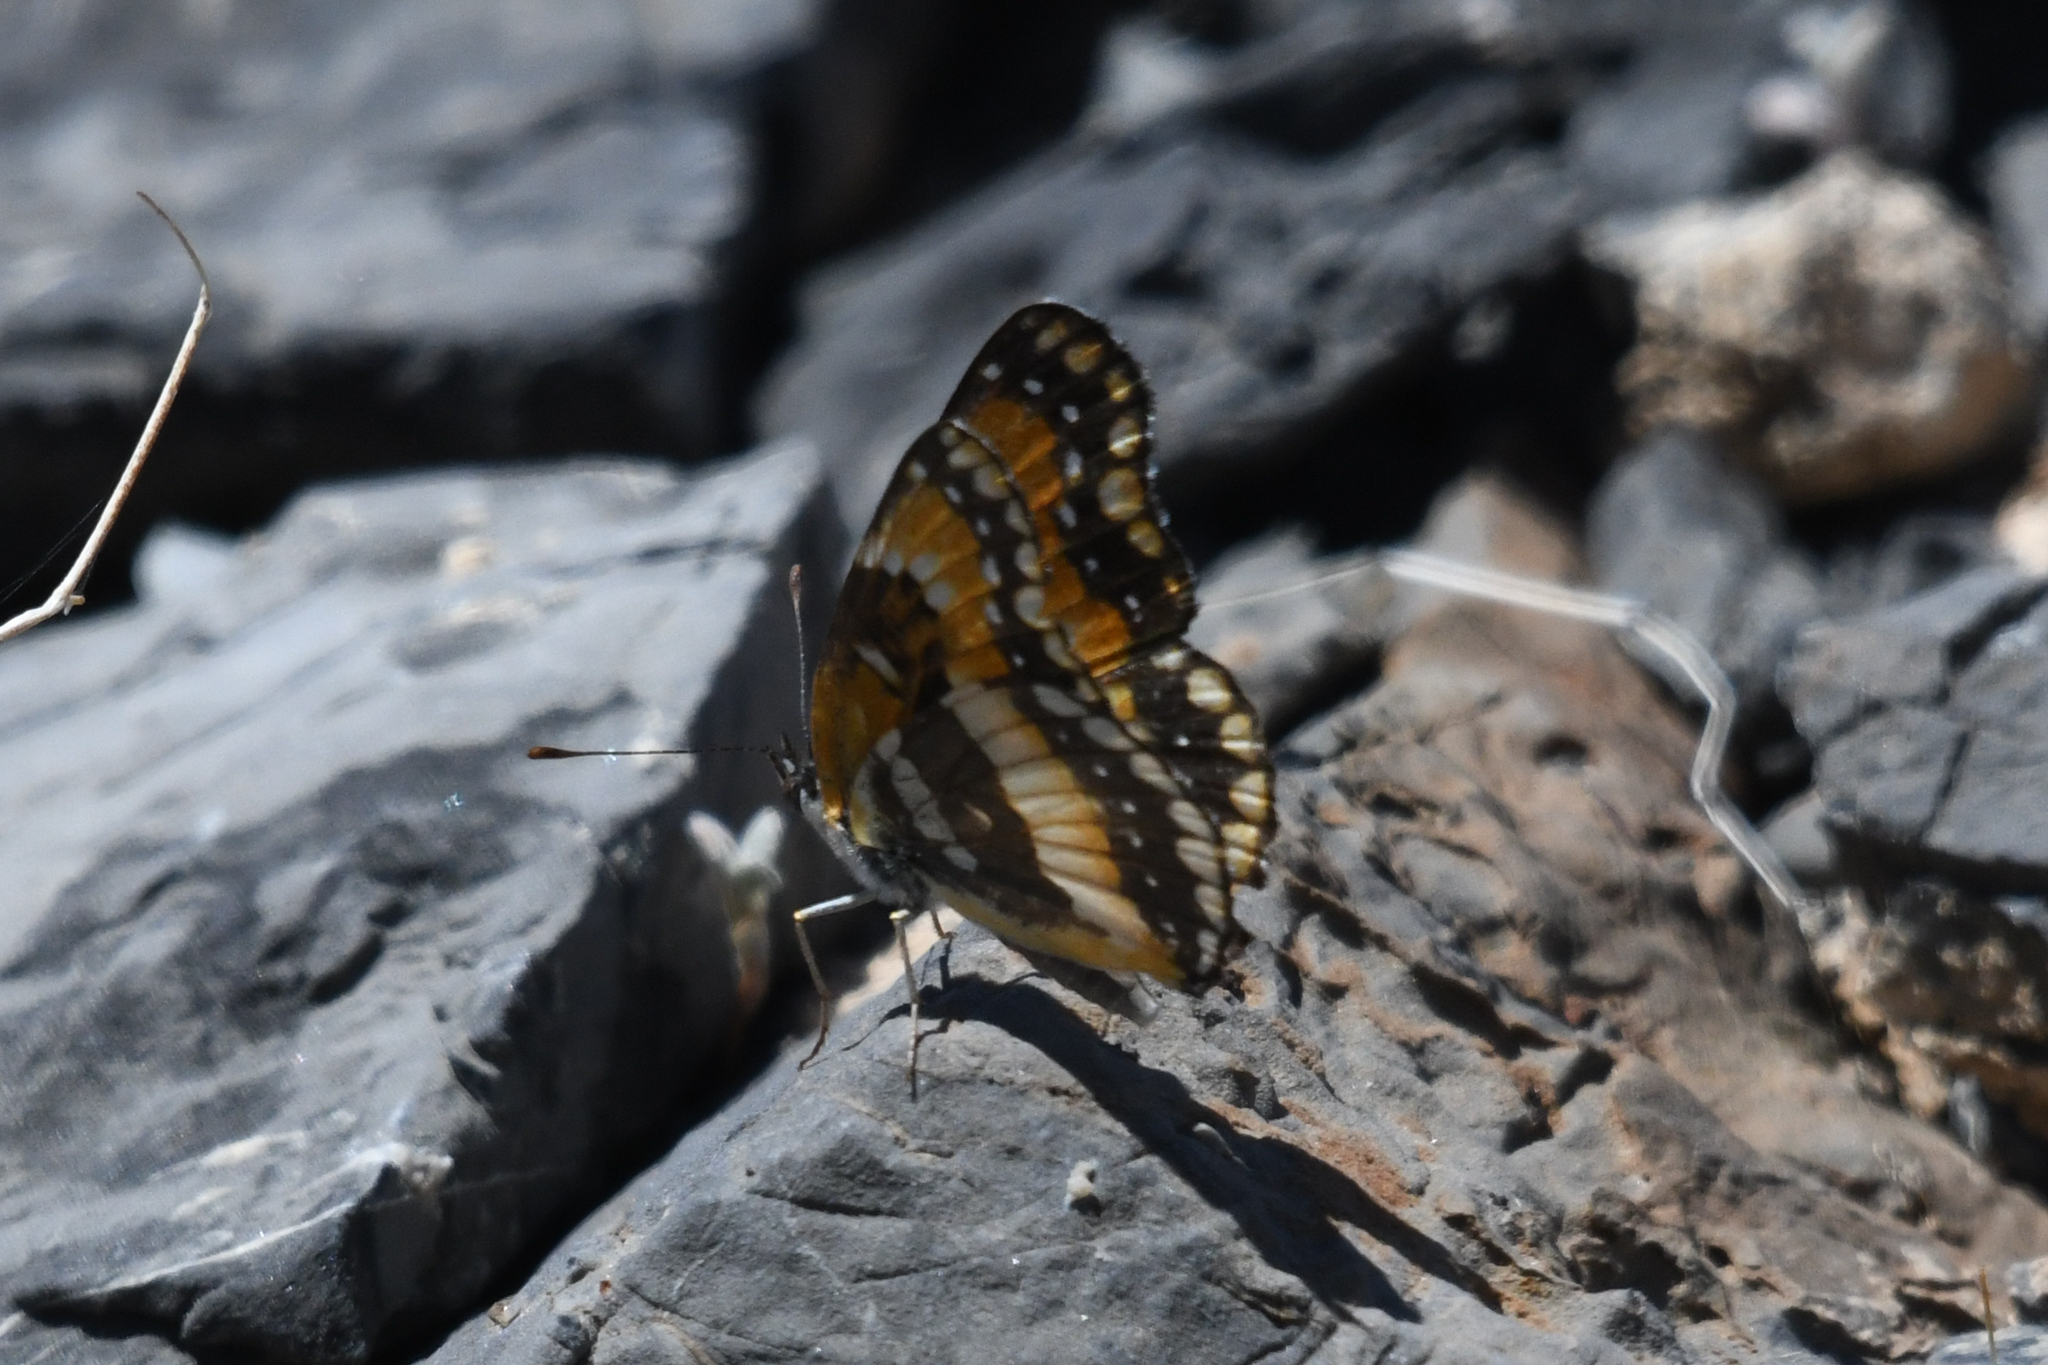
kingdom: Animalia
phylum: Arthropoda
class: Insecta
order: Lepidoptera
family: Nymphalidae
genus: Chlosyne
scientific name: Chlosyne californica
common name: California patch
